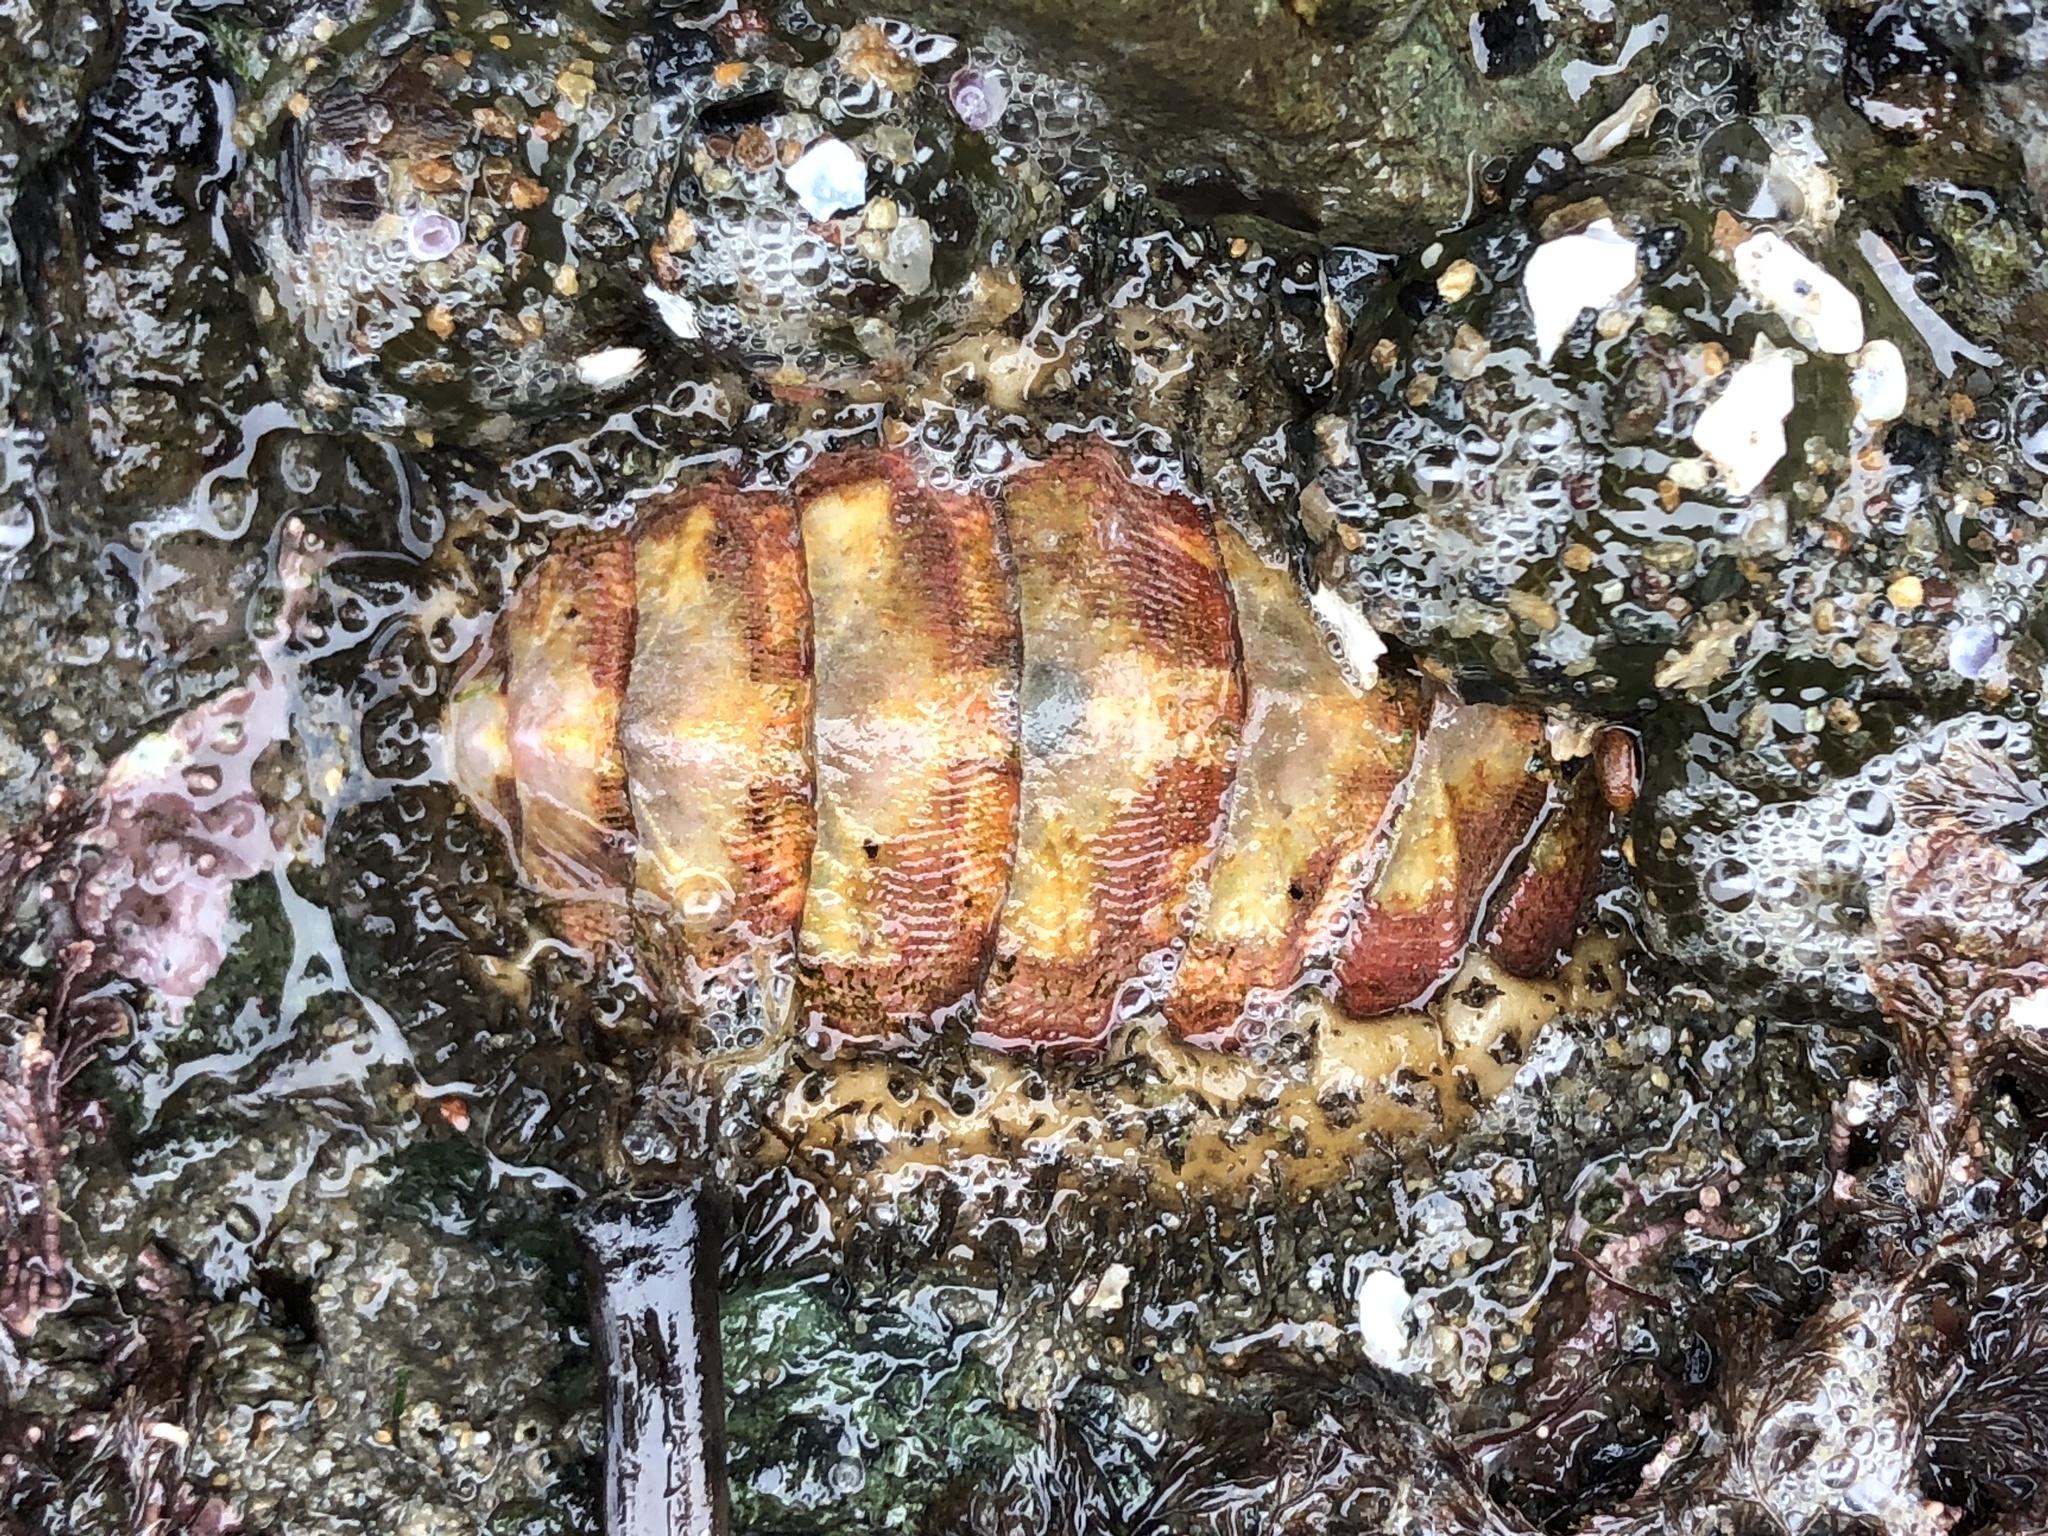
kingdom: Animalia
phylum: Mollusca
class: Polyplacophora
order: Chitonida
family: Mopaliidae
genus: Mopalia
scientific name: Mopalia muscosa
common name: Mossy chiton
